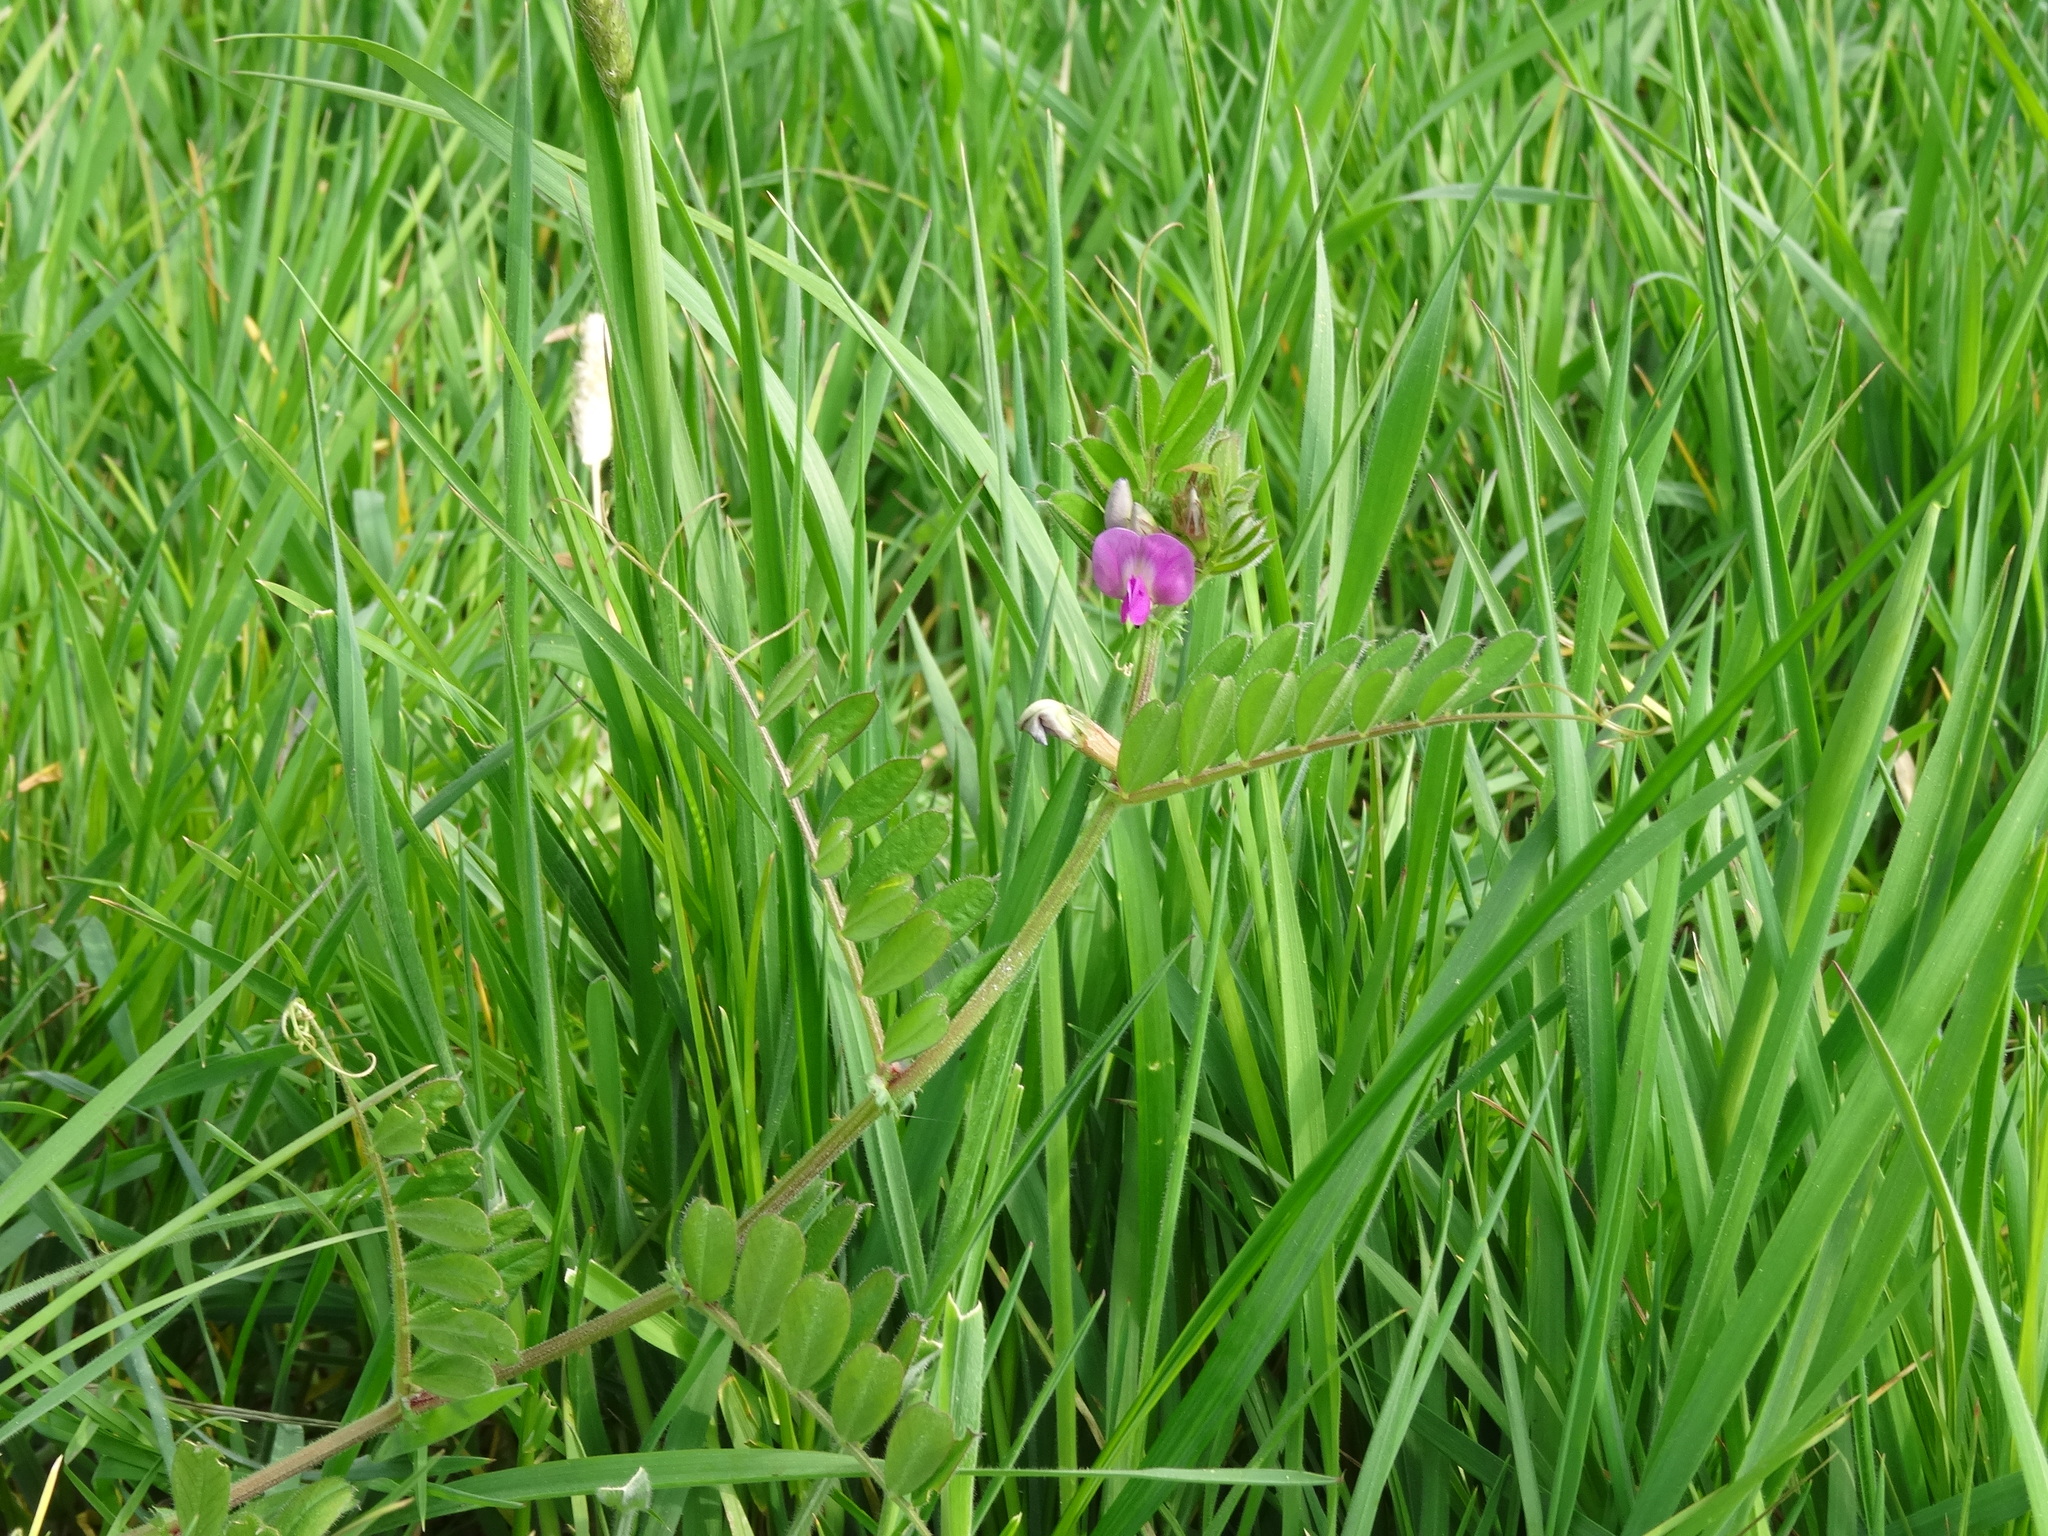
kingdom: Plantae
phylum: Tracheophyta
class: Magnoliopsida
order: Fabales
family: Fabaceae
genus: Vicia
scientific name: Vicia sativa
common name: Garden vetch
